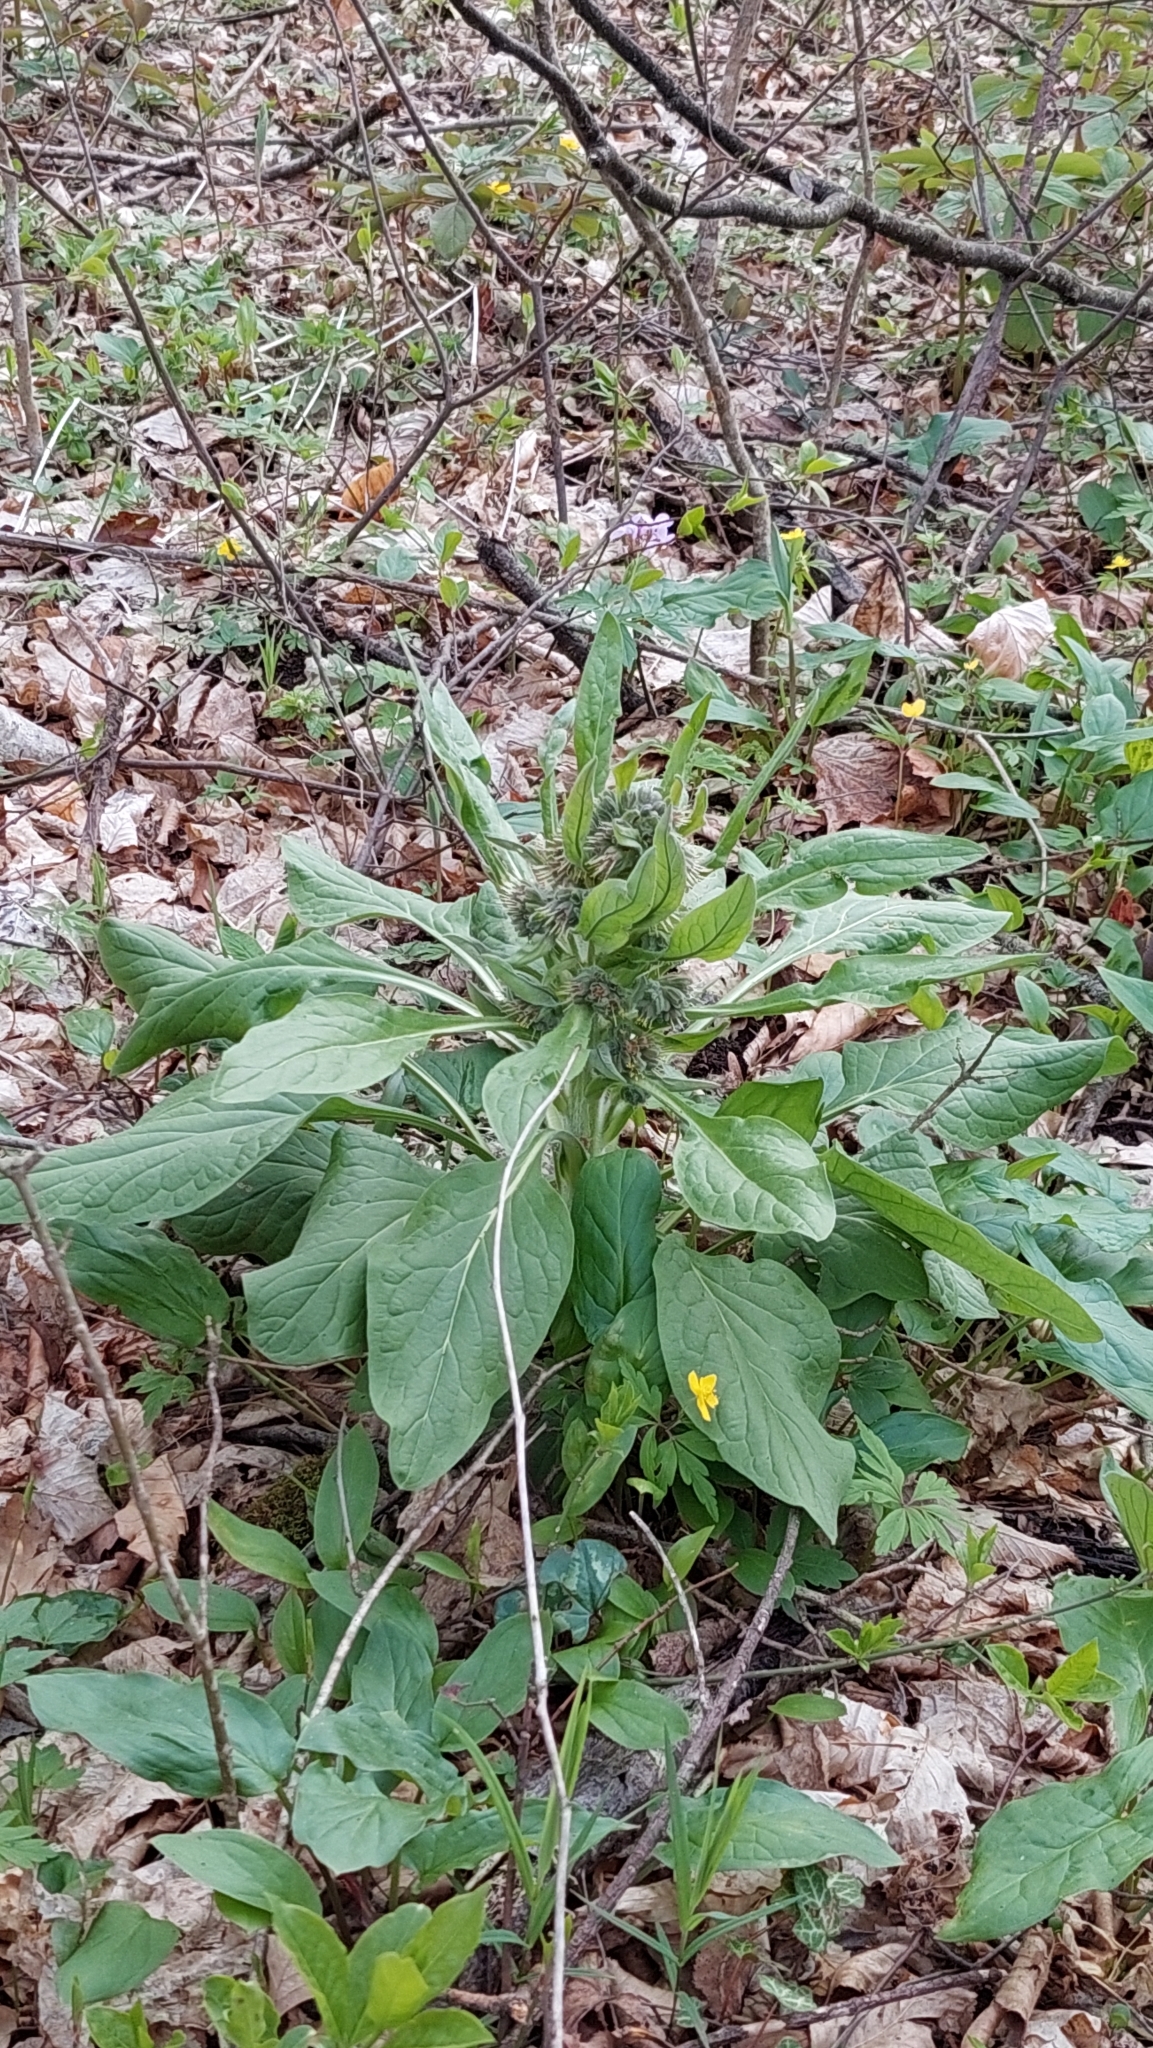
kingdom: Plantae
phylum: Tracheophyta
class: Magnoliopsida
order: Boraginales
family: Boraginaceae
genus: Solenanthus
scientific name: Solenanthus dubius
